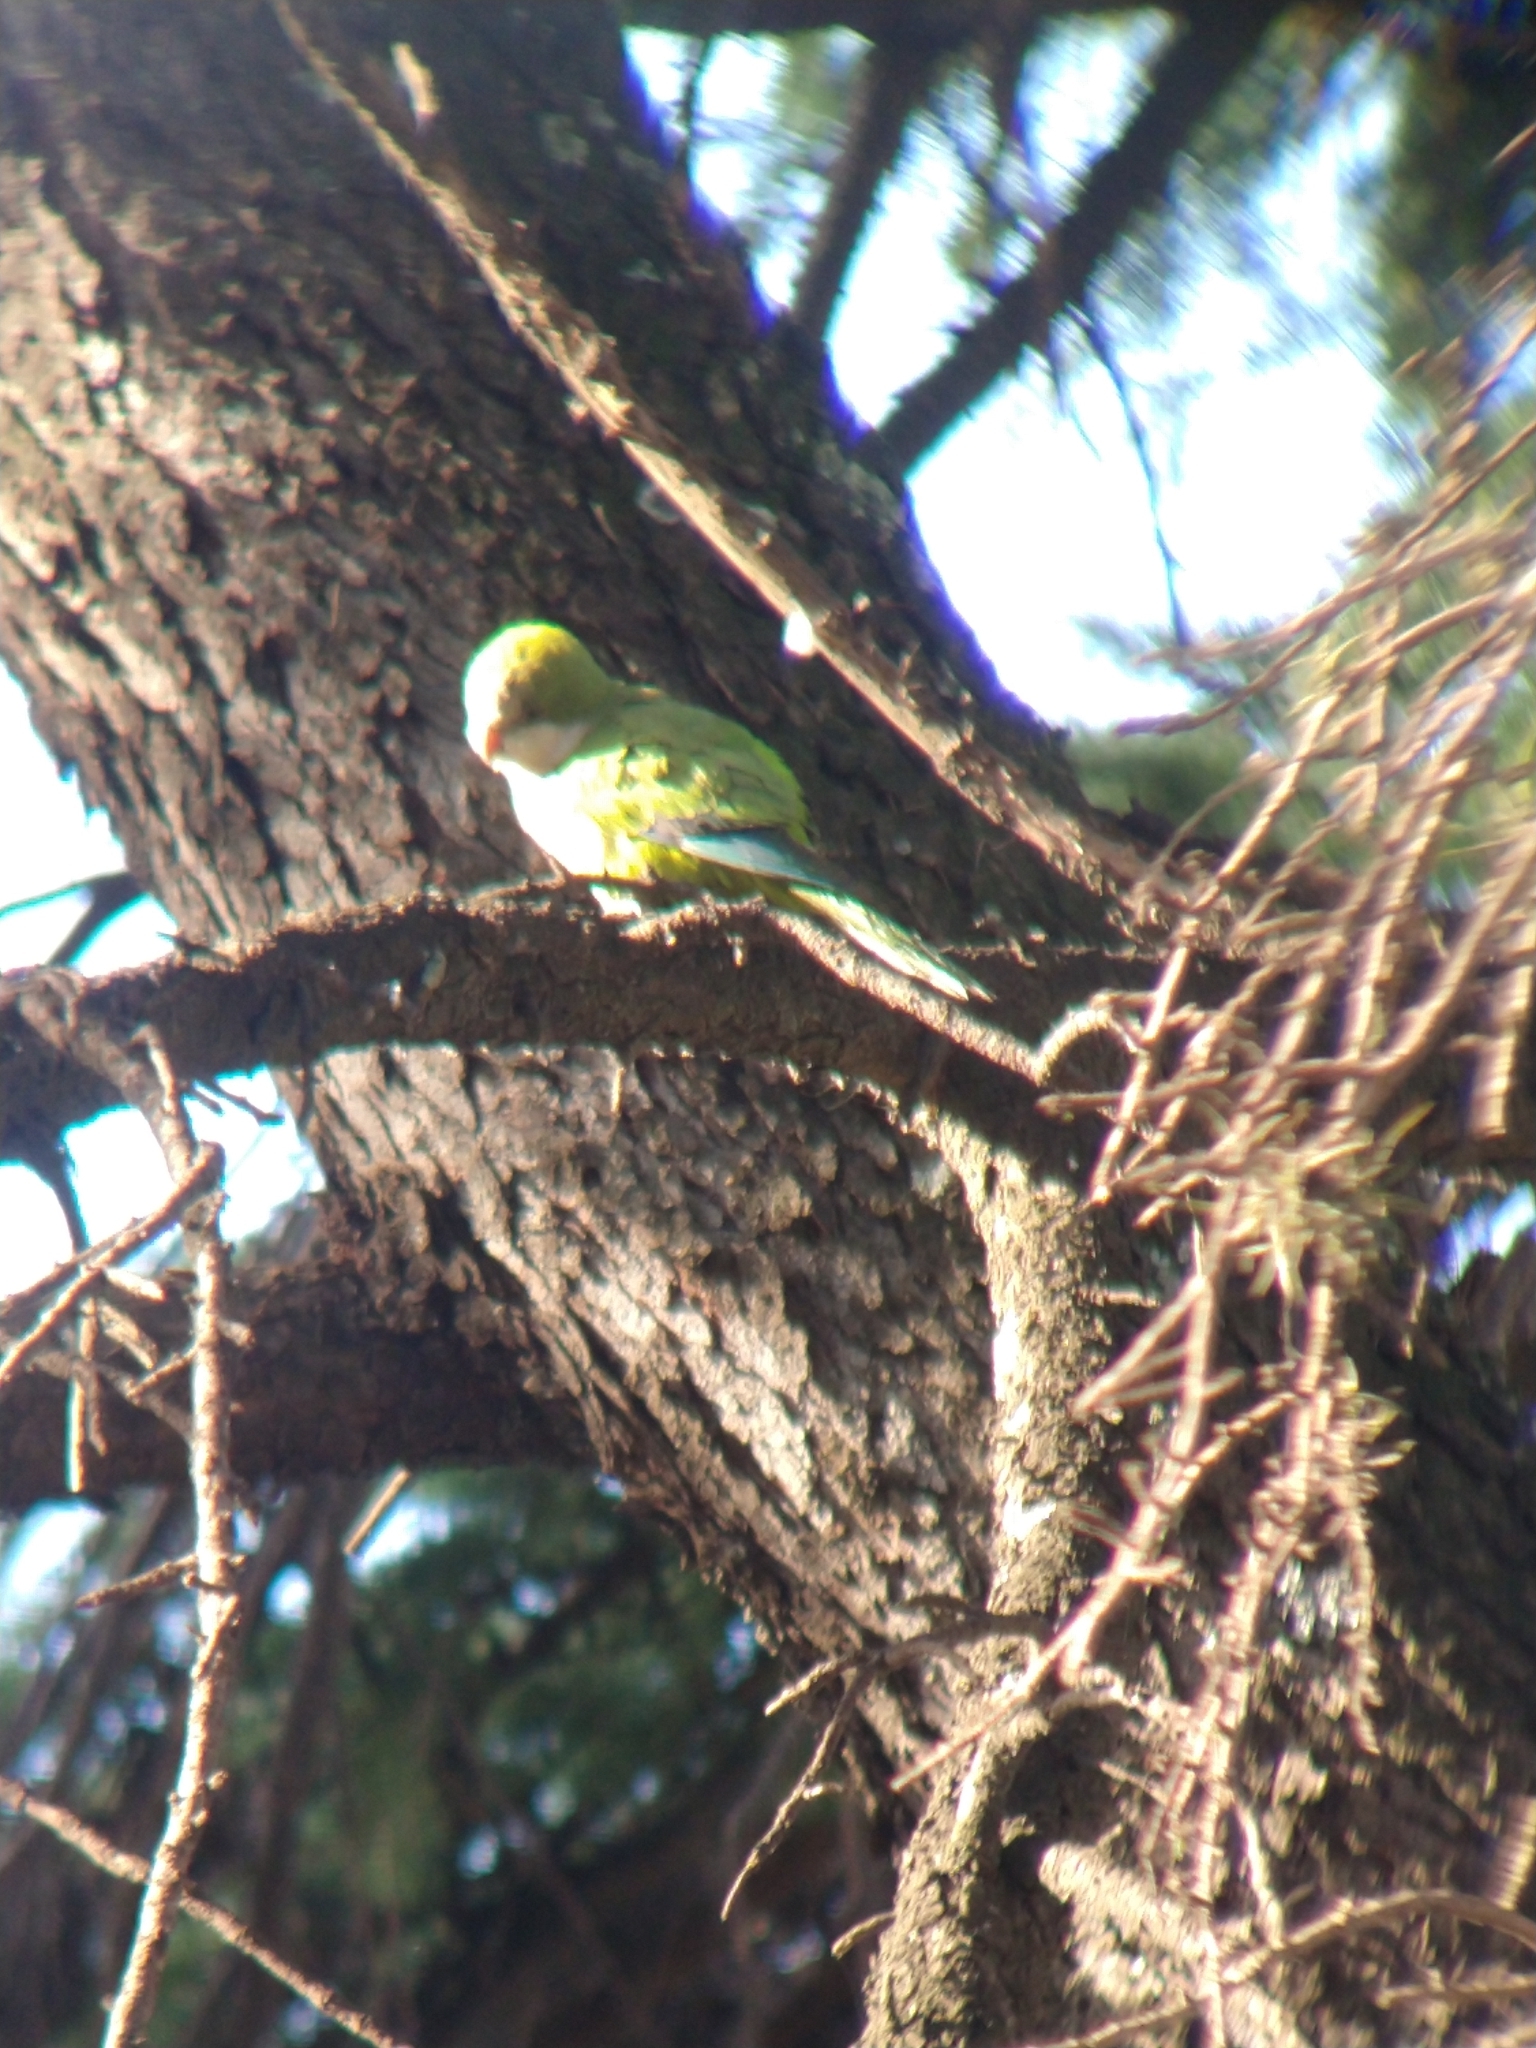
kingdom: Animalia
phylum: Chordata
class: Aves
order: Psittaciformes
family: Psittacidae
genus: Myiopsitta
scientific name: Myiopsitta monachus
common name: Monk parakeet
